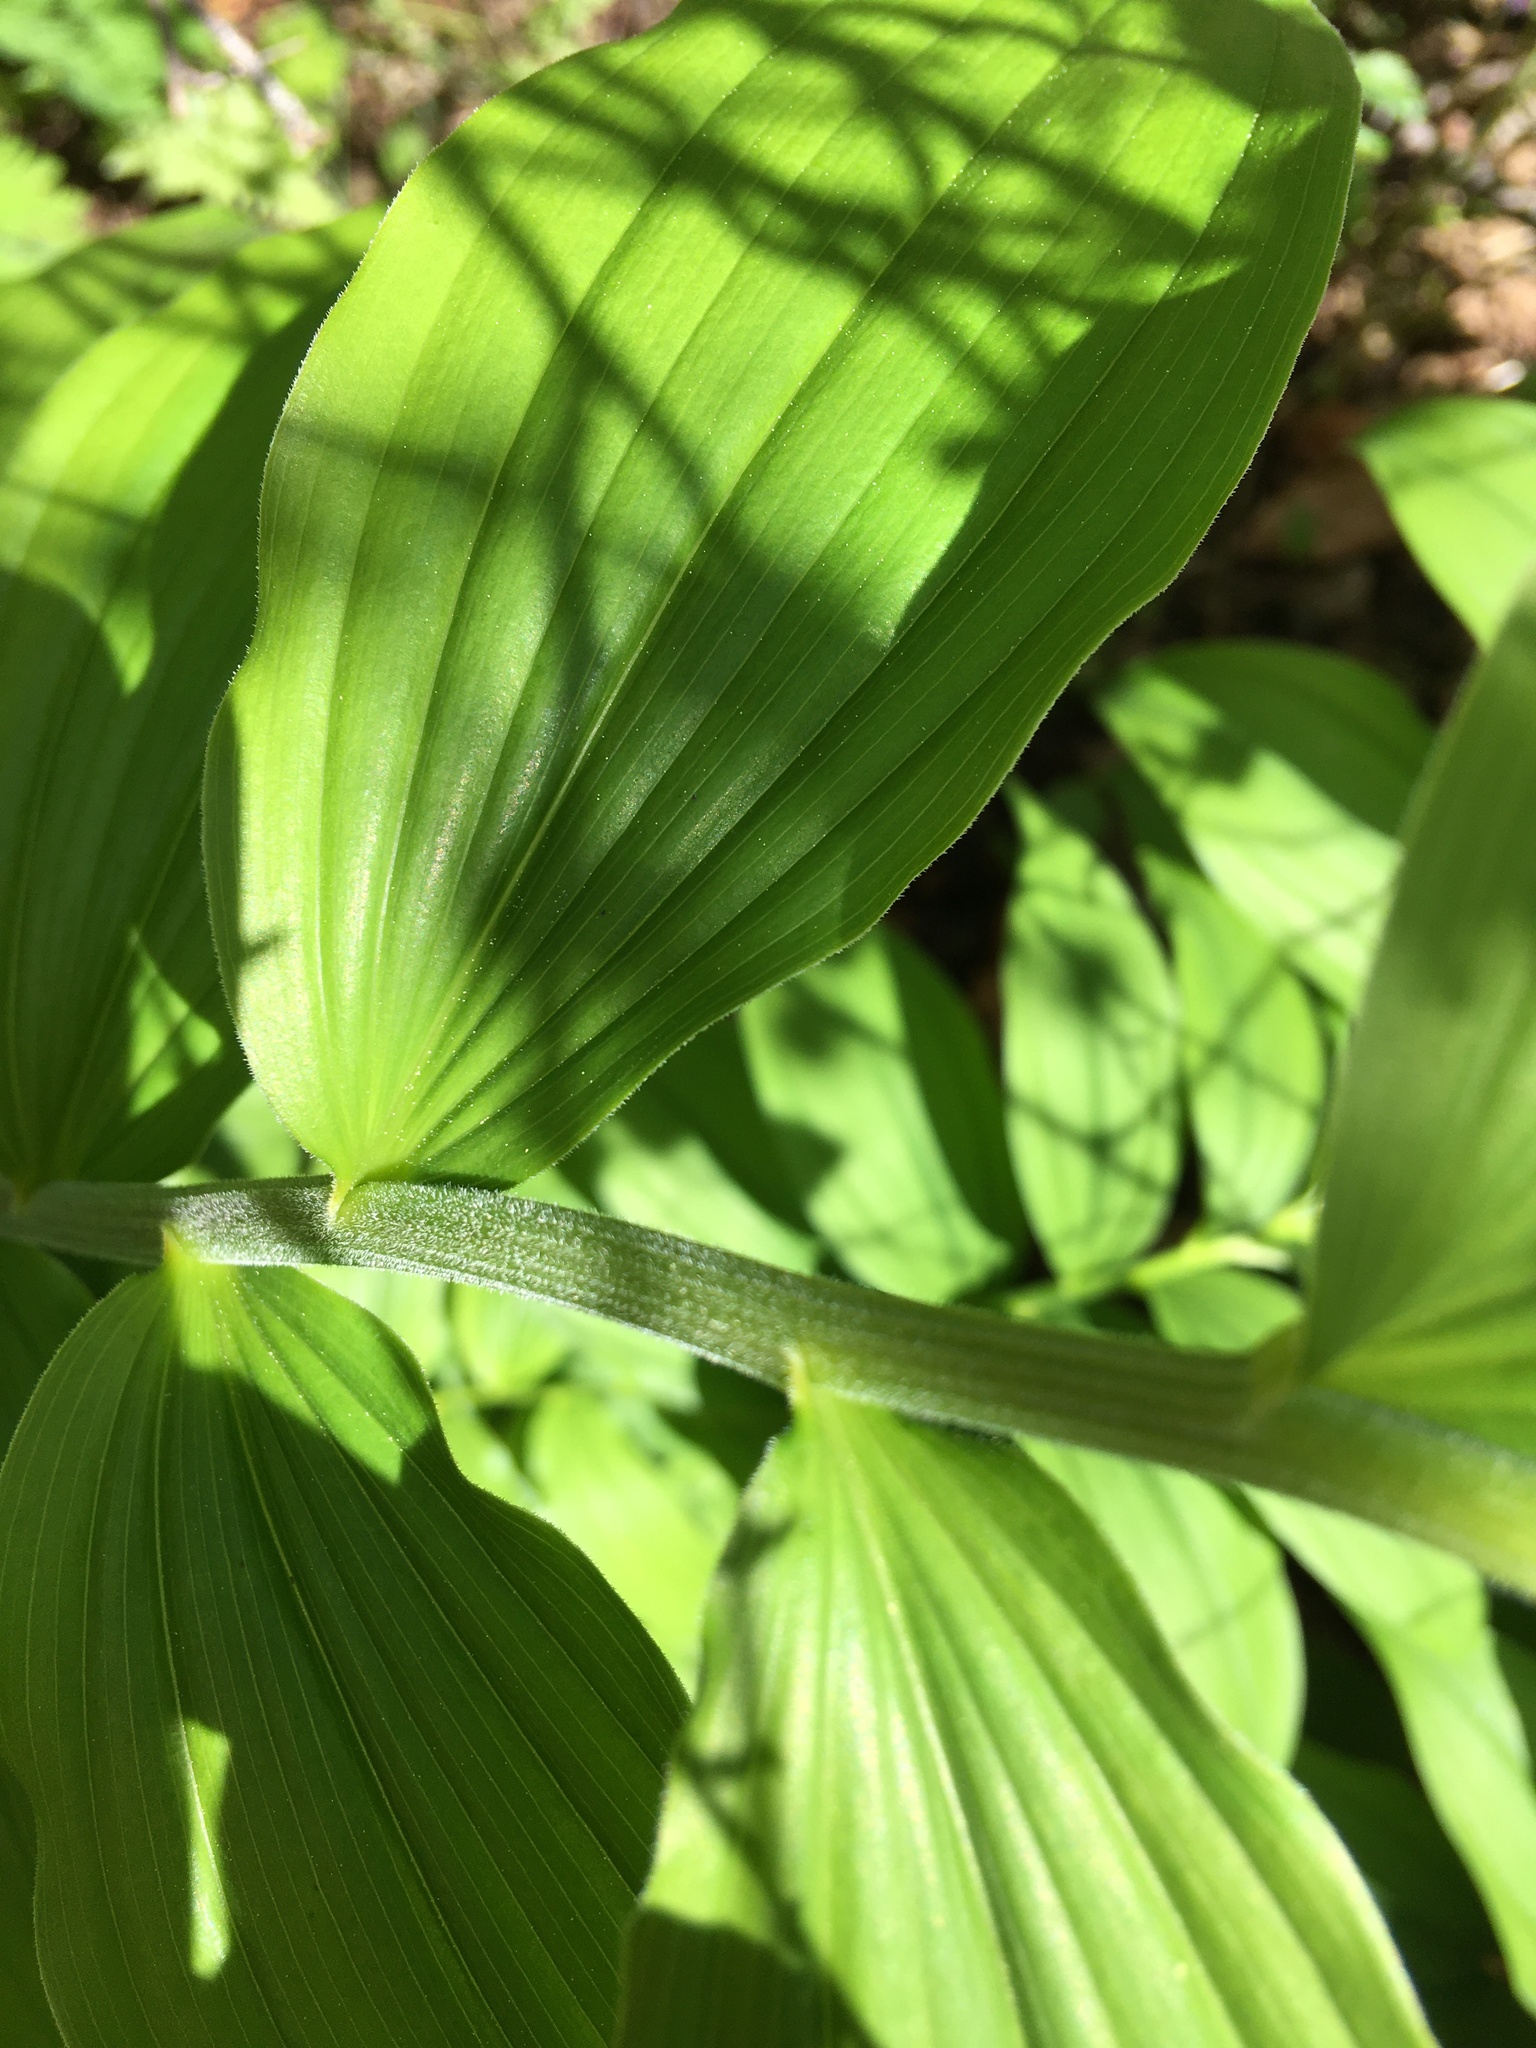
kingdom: Plantae
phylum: Tracheophyta
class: Liliopsida
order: Asparagales
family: Asparagaceae
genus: Maianthemum
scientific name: Maianthemum racemosum
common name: False spikenard
